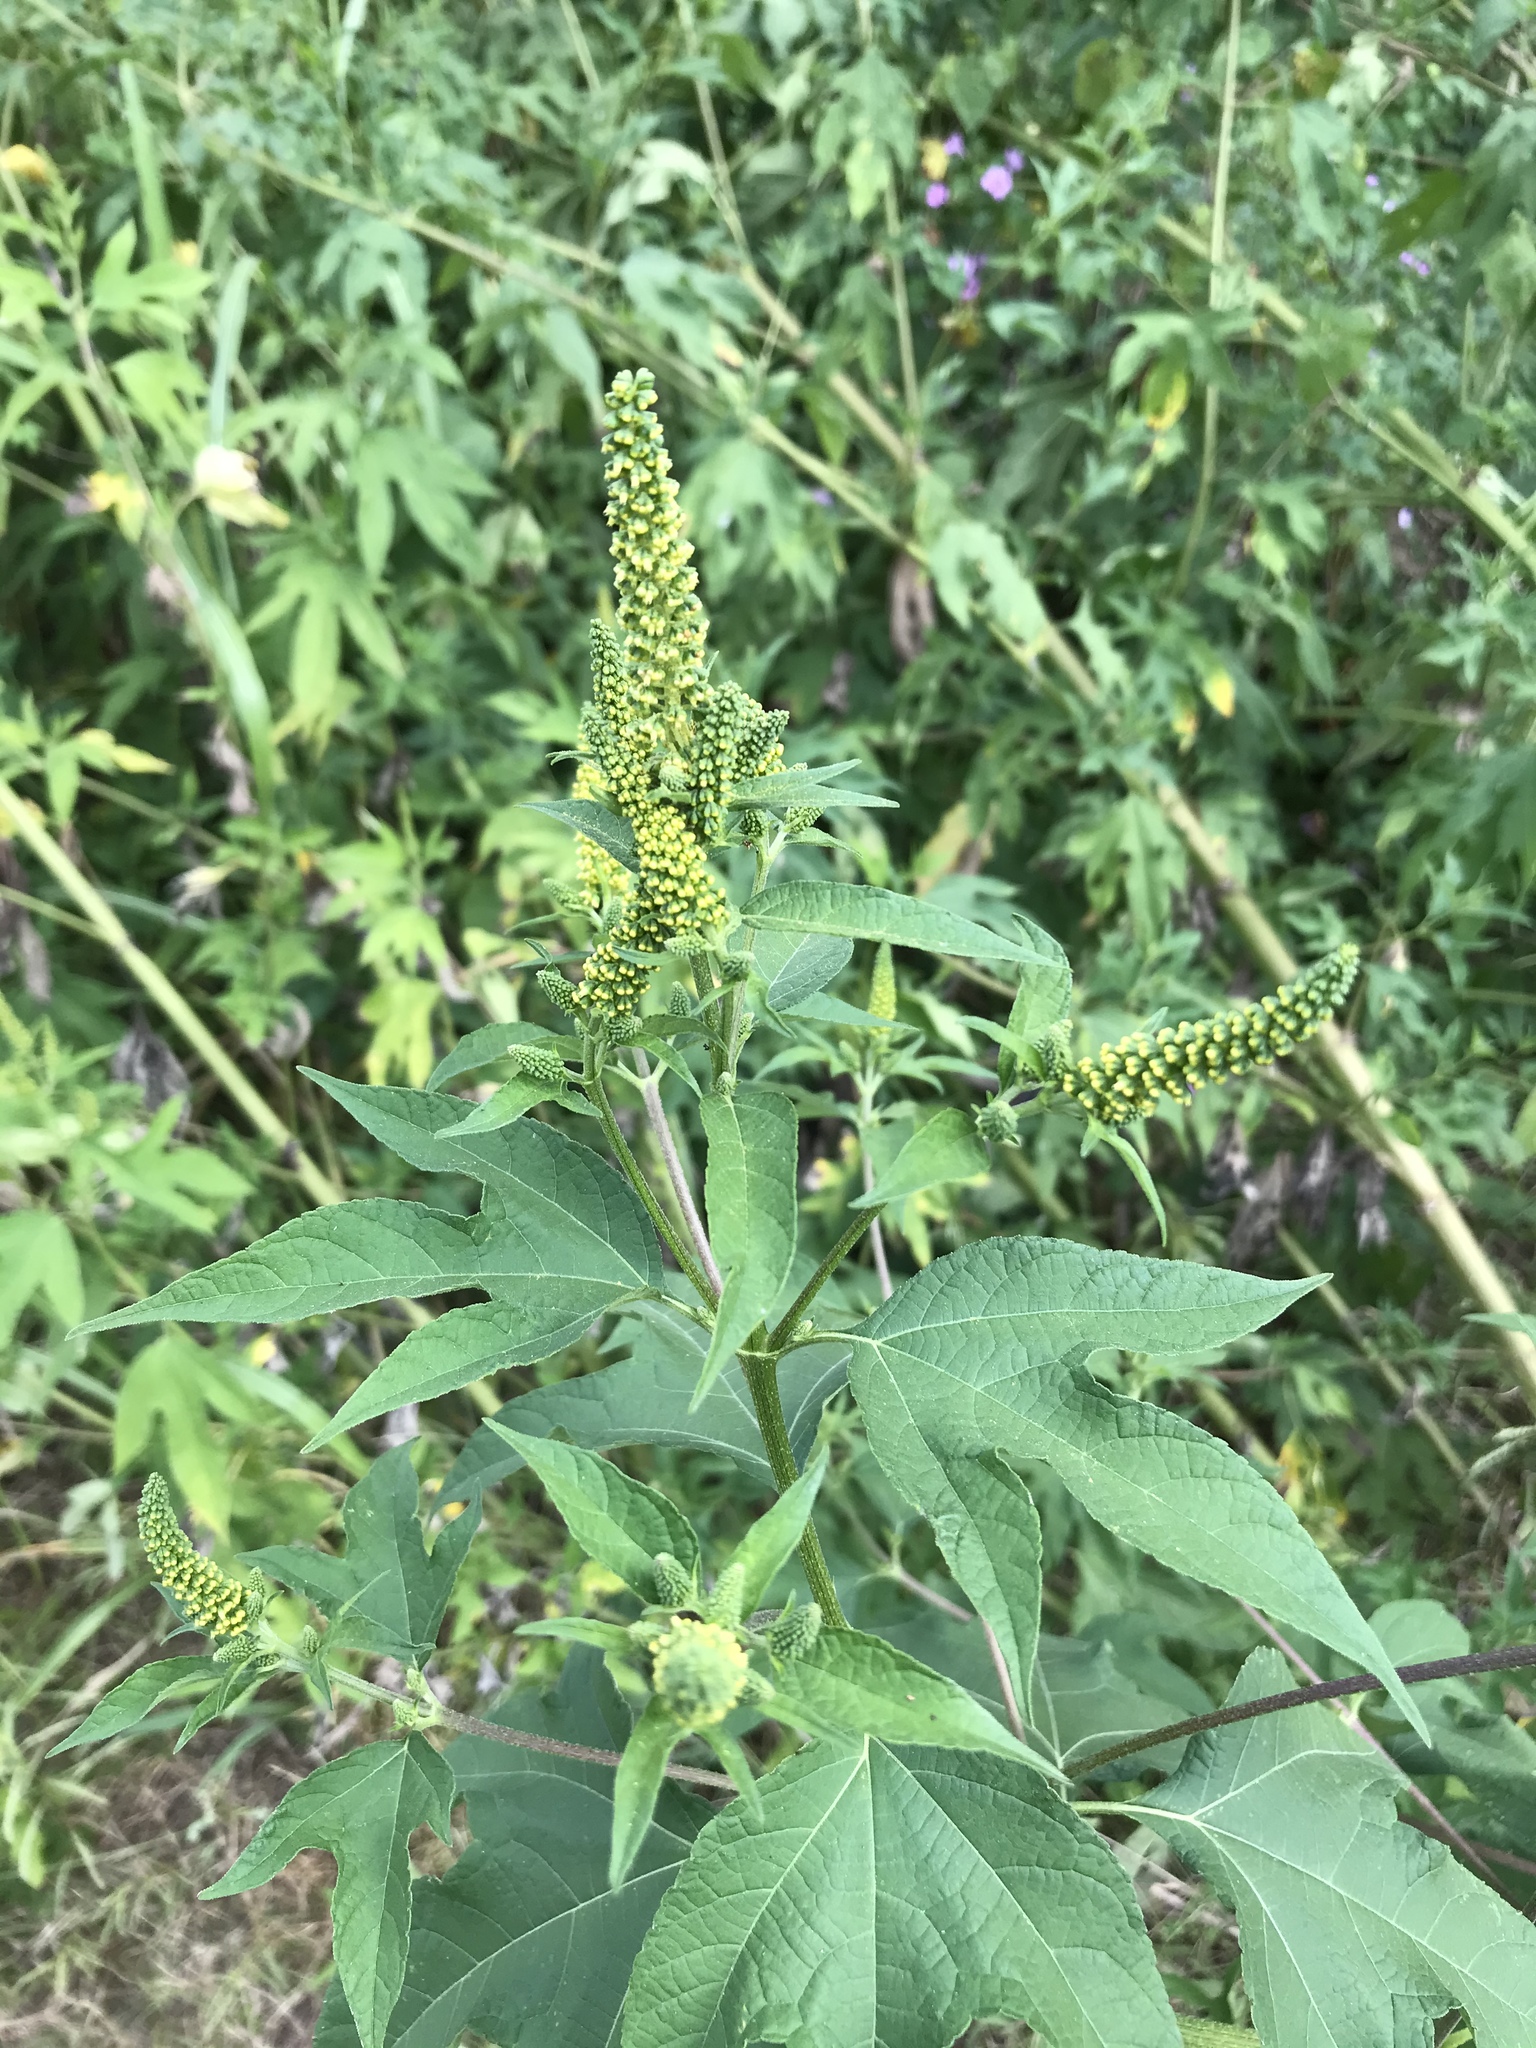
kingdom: Plantae
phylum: Tracheophyta
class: Magnoliopsida
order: Asterales
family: Asteraceae
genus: Ambrosia
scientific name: Ambrosia trifida
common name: Giant ragweed
